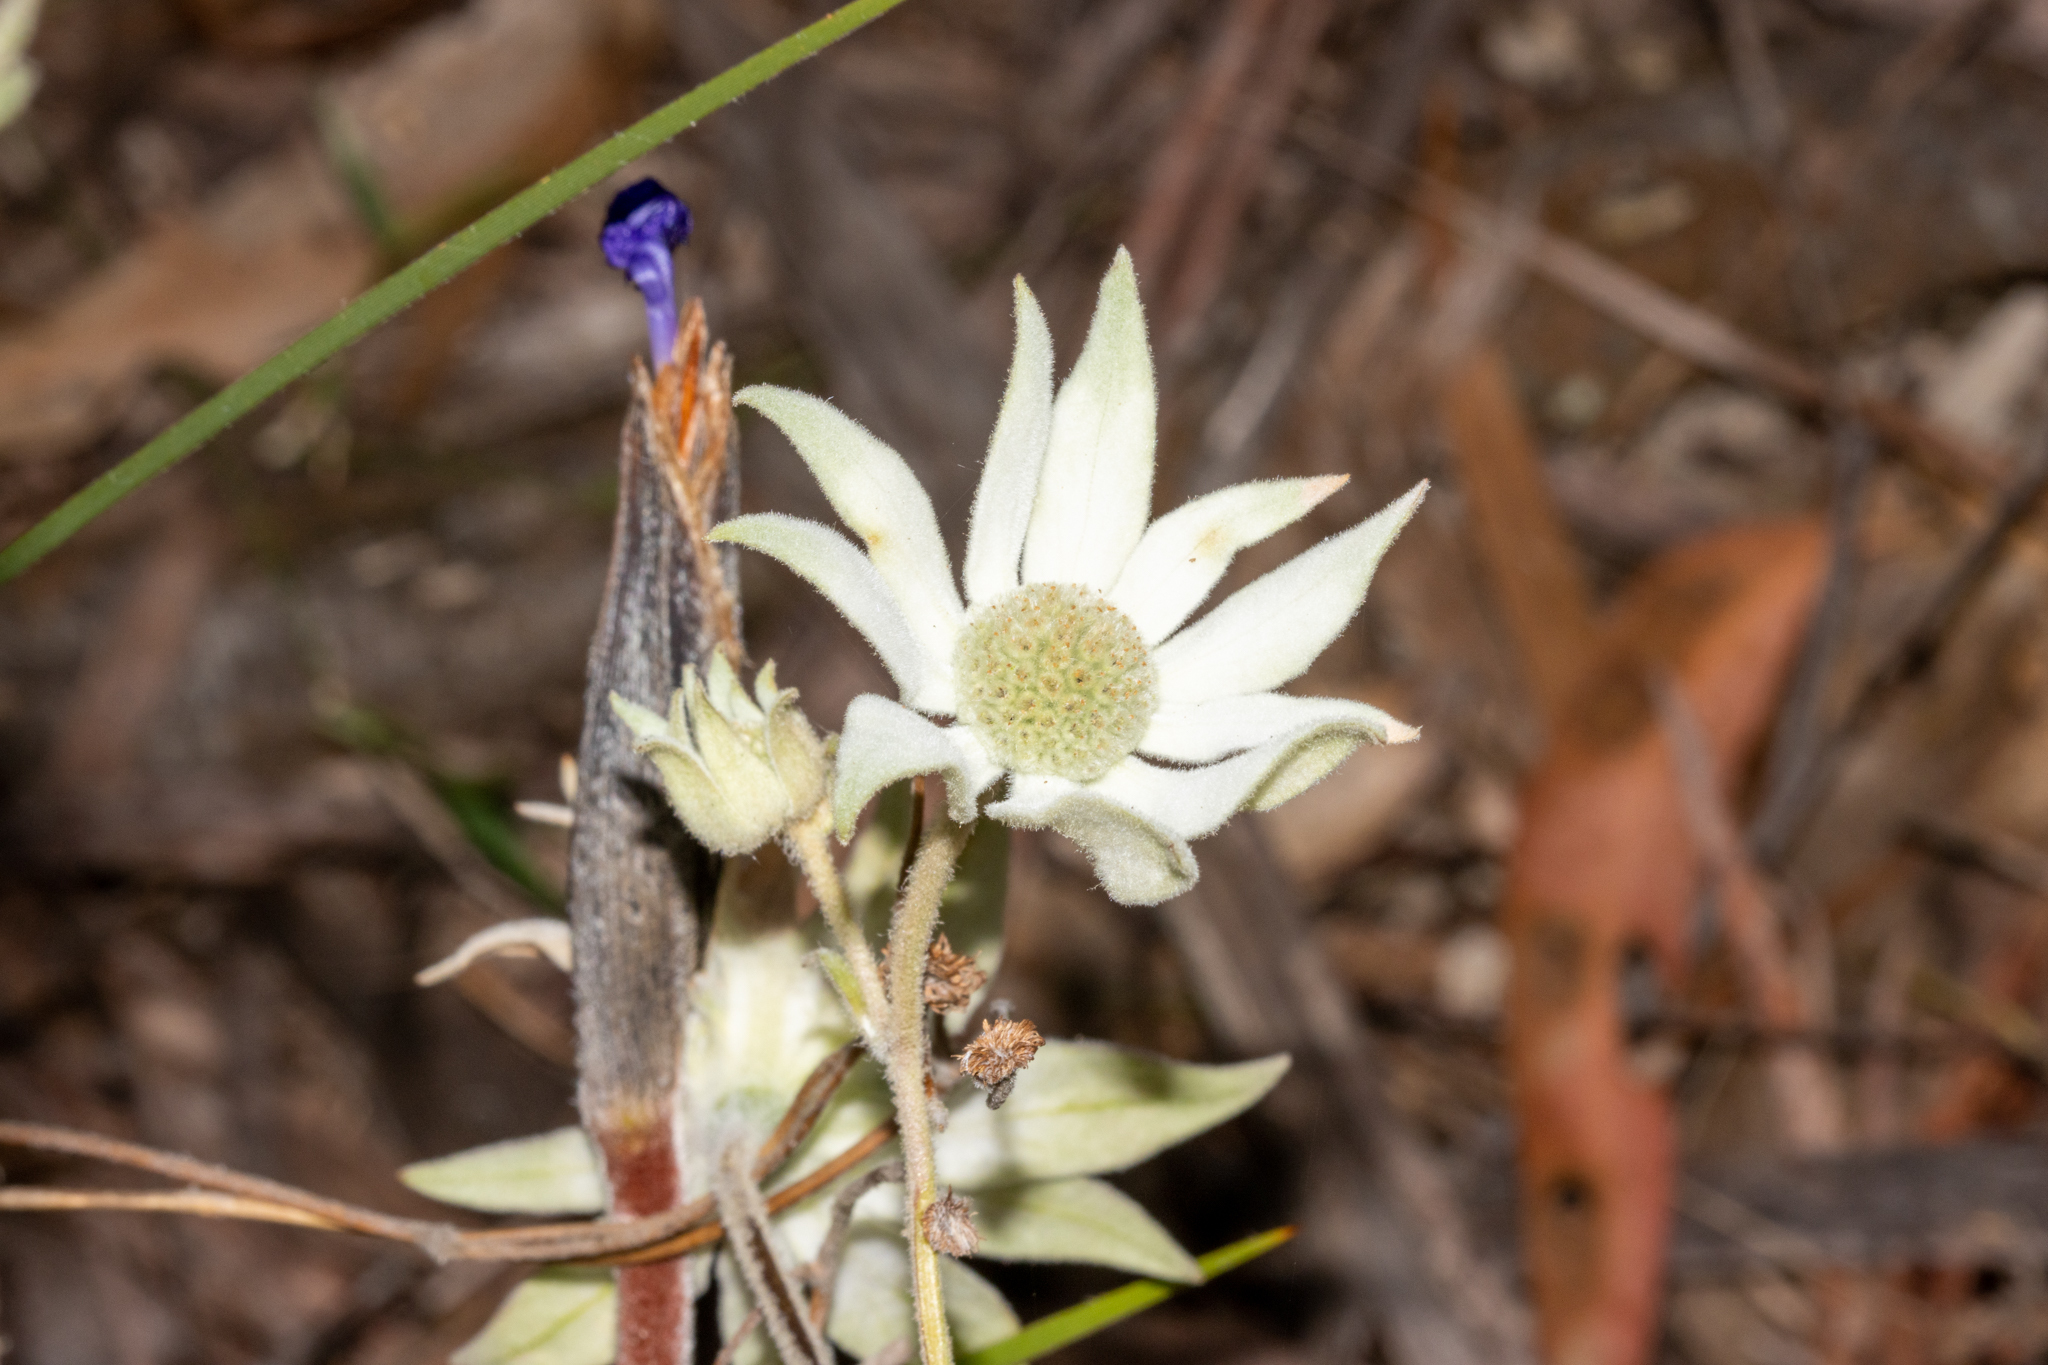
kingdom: Plantae
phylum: Tracheophyta
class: Magnoliopsida
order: Apiales
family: Apiaceae
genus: Actinotus
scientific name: Actinotus helianthi
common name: Flannel-flower
